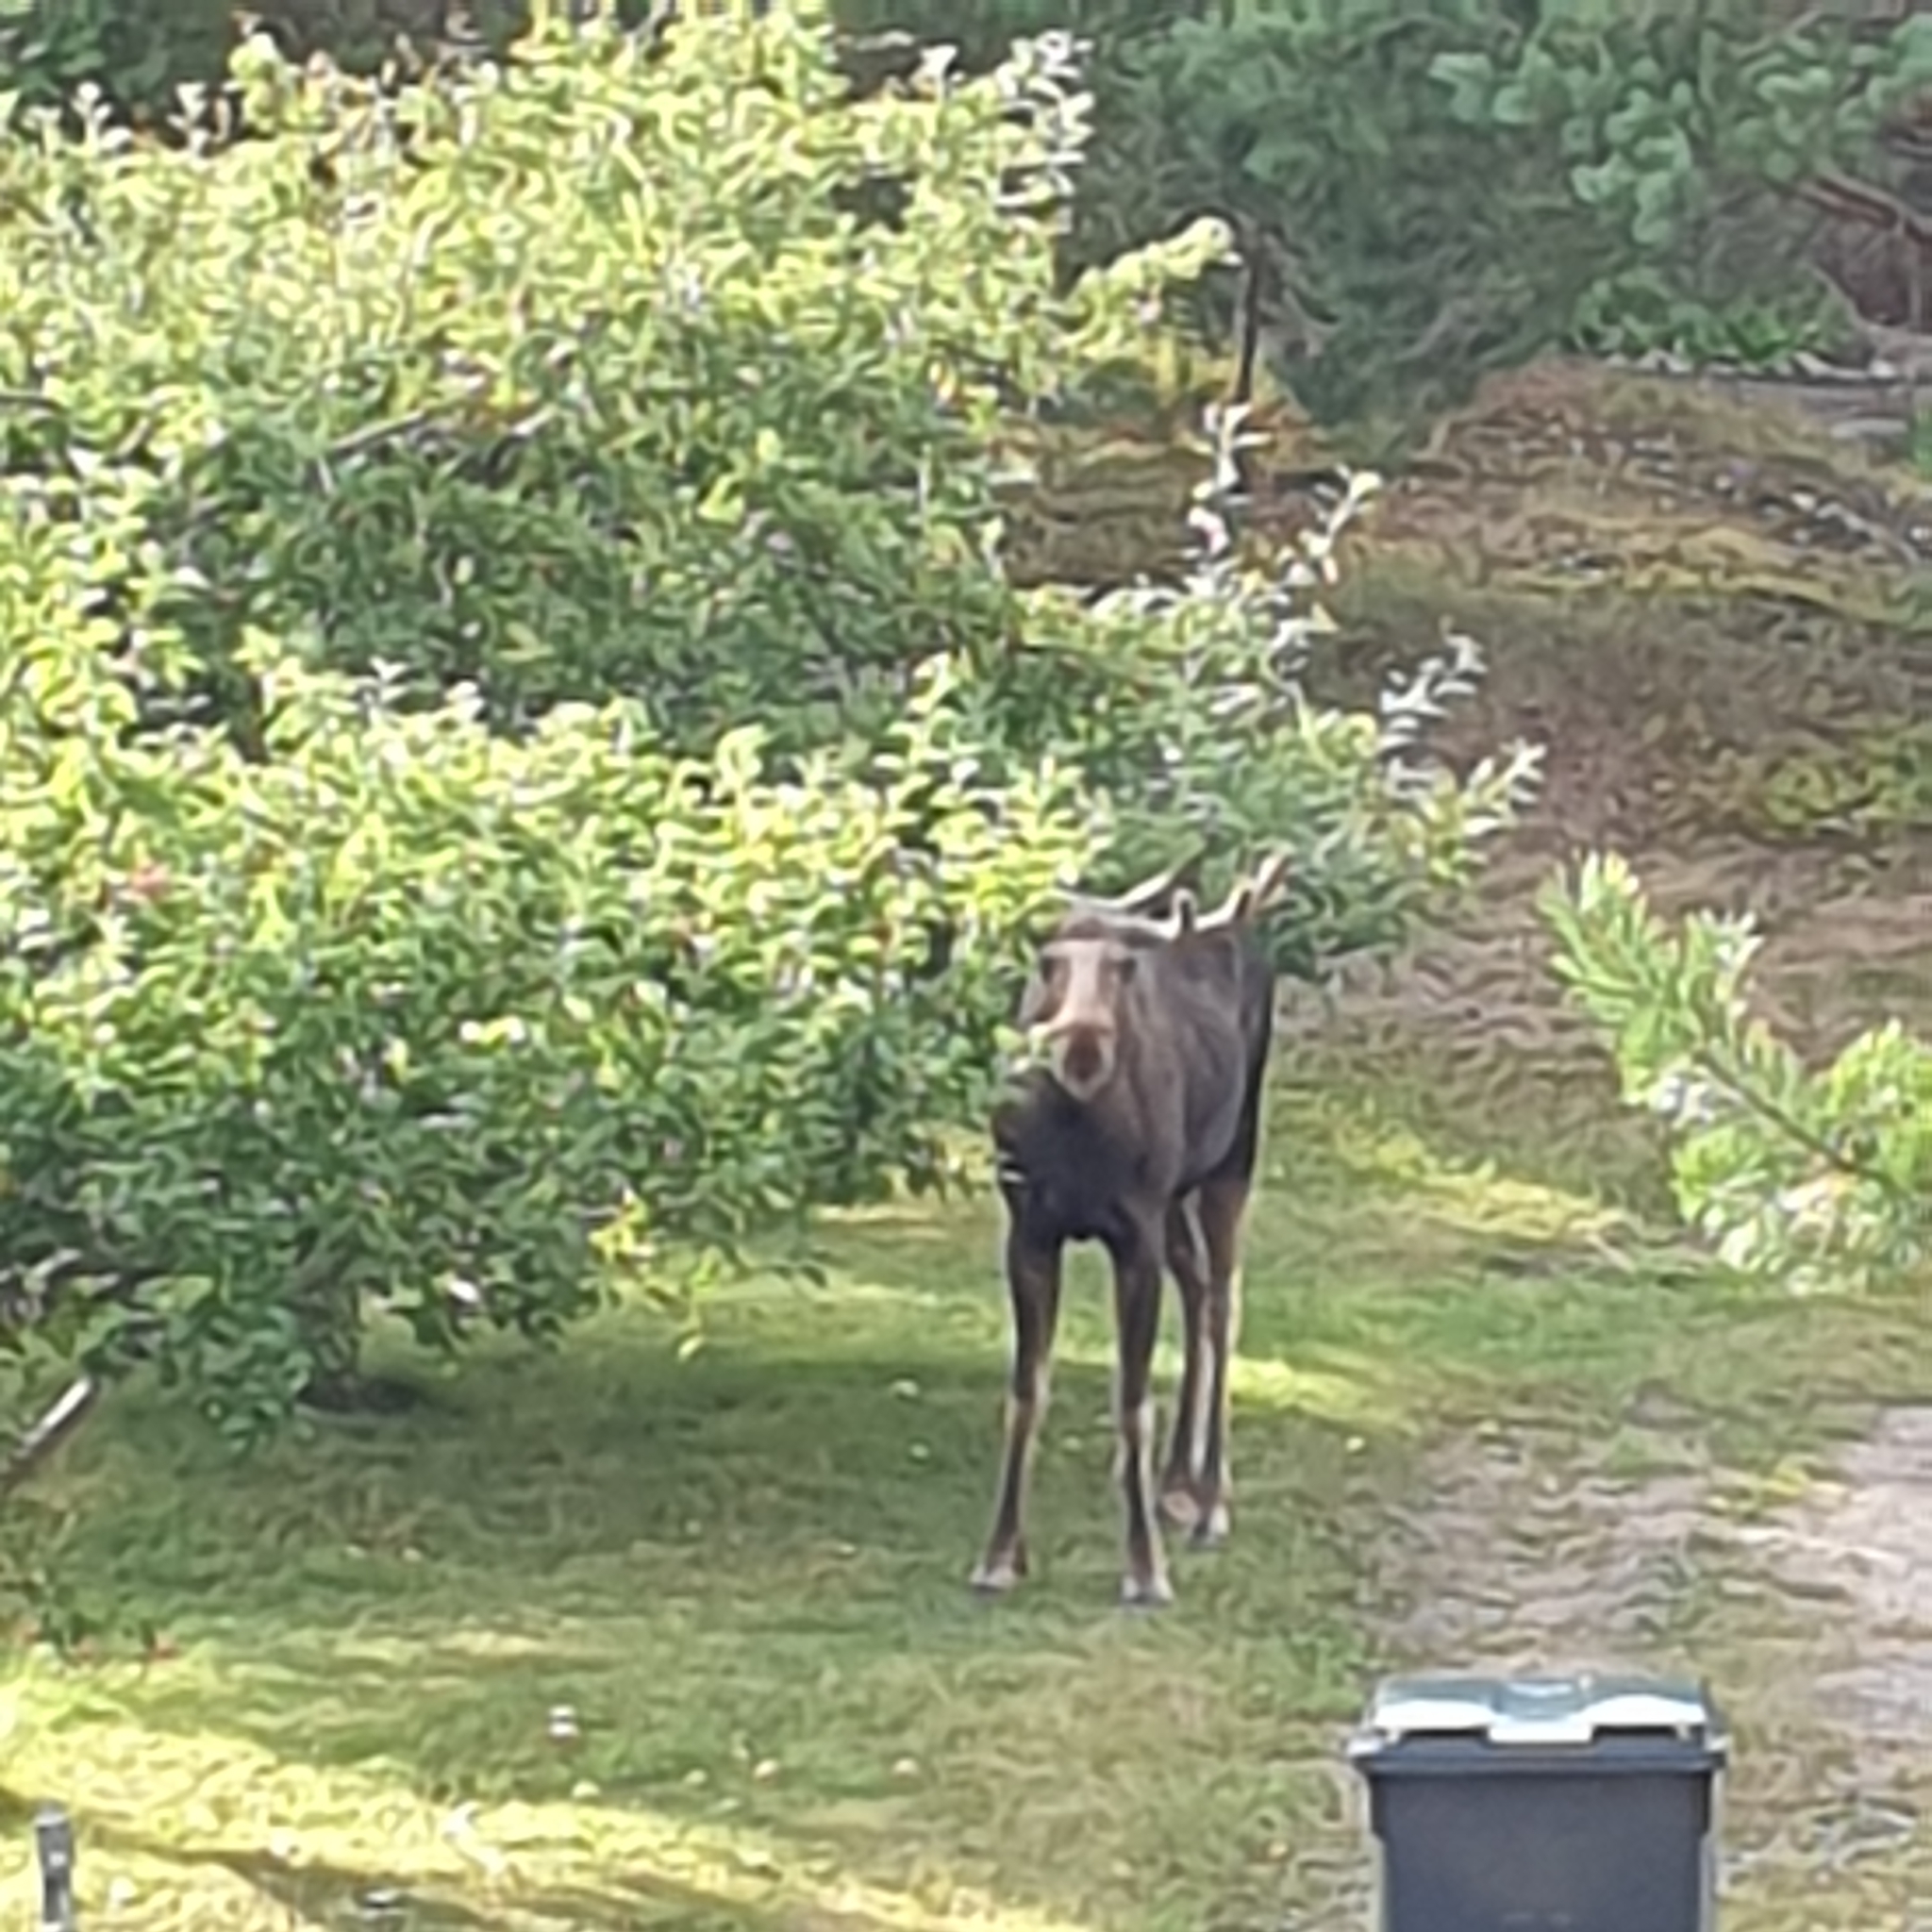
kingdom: Animalia
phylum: Chordata
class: Mammalia
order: Artiodactyla
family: Cervidae
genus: Alces
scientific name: Alces alces
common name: Moose
